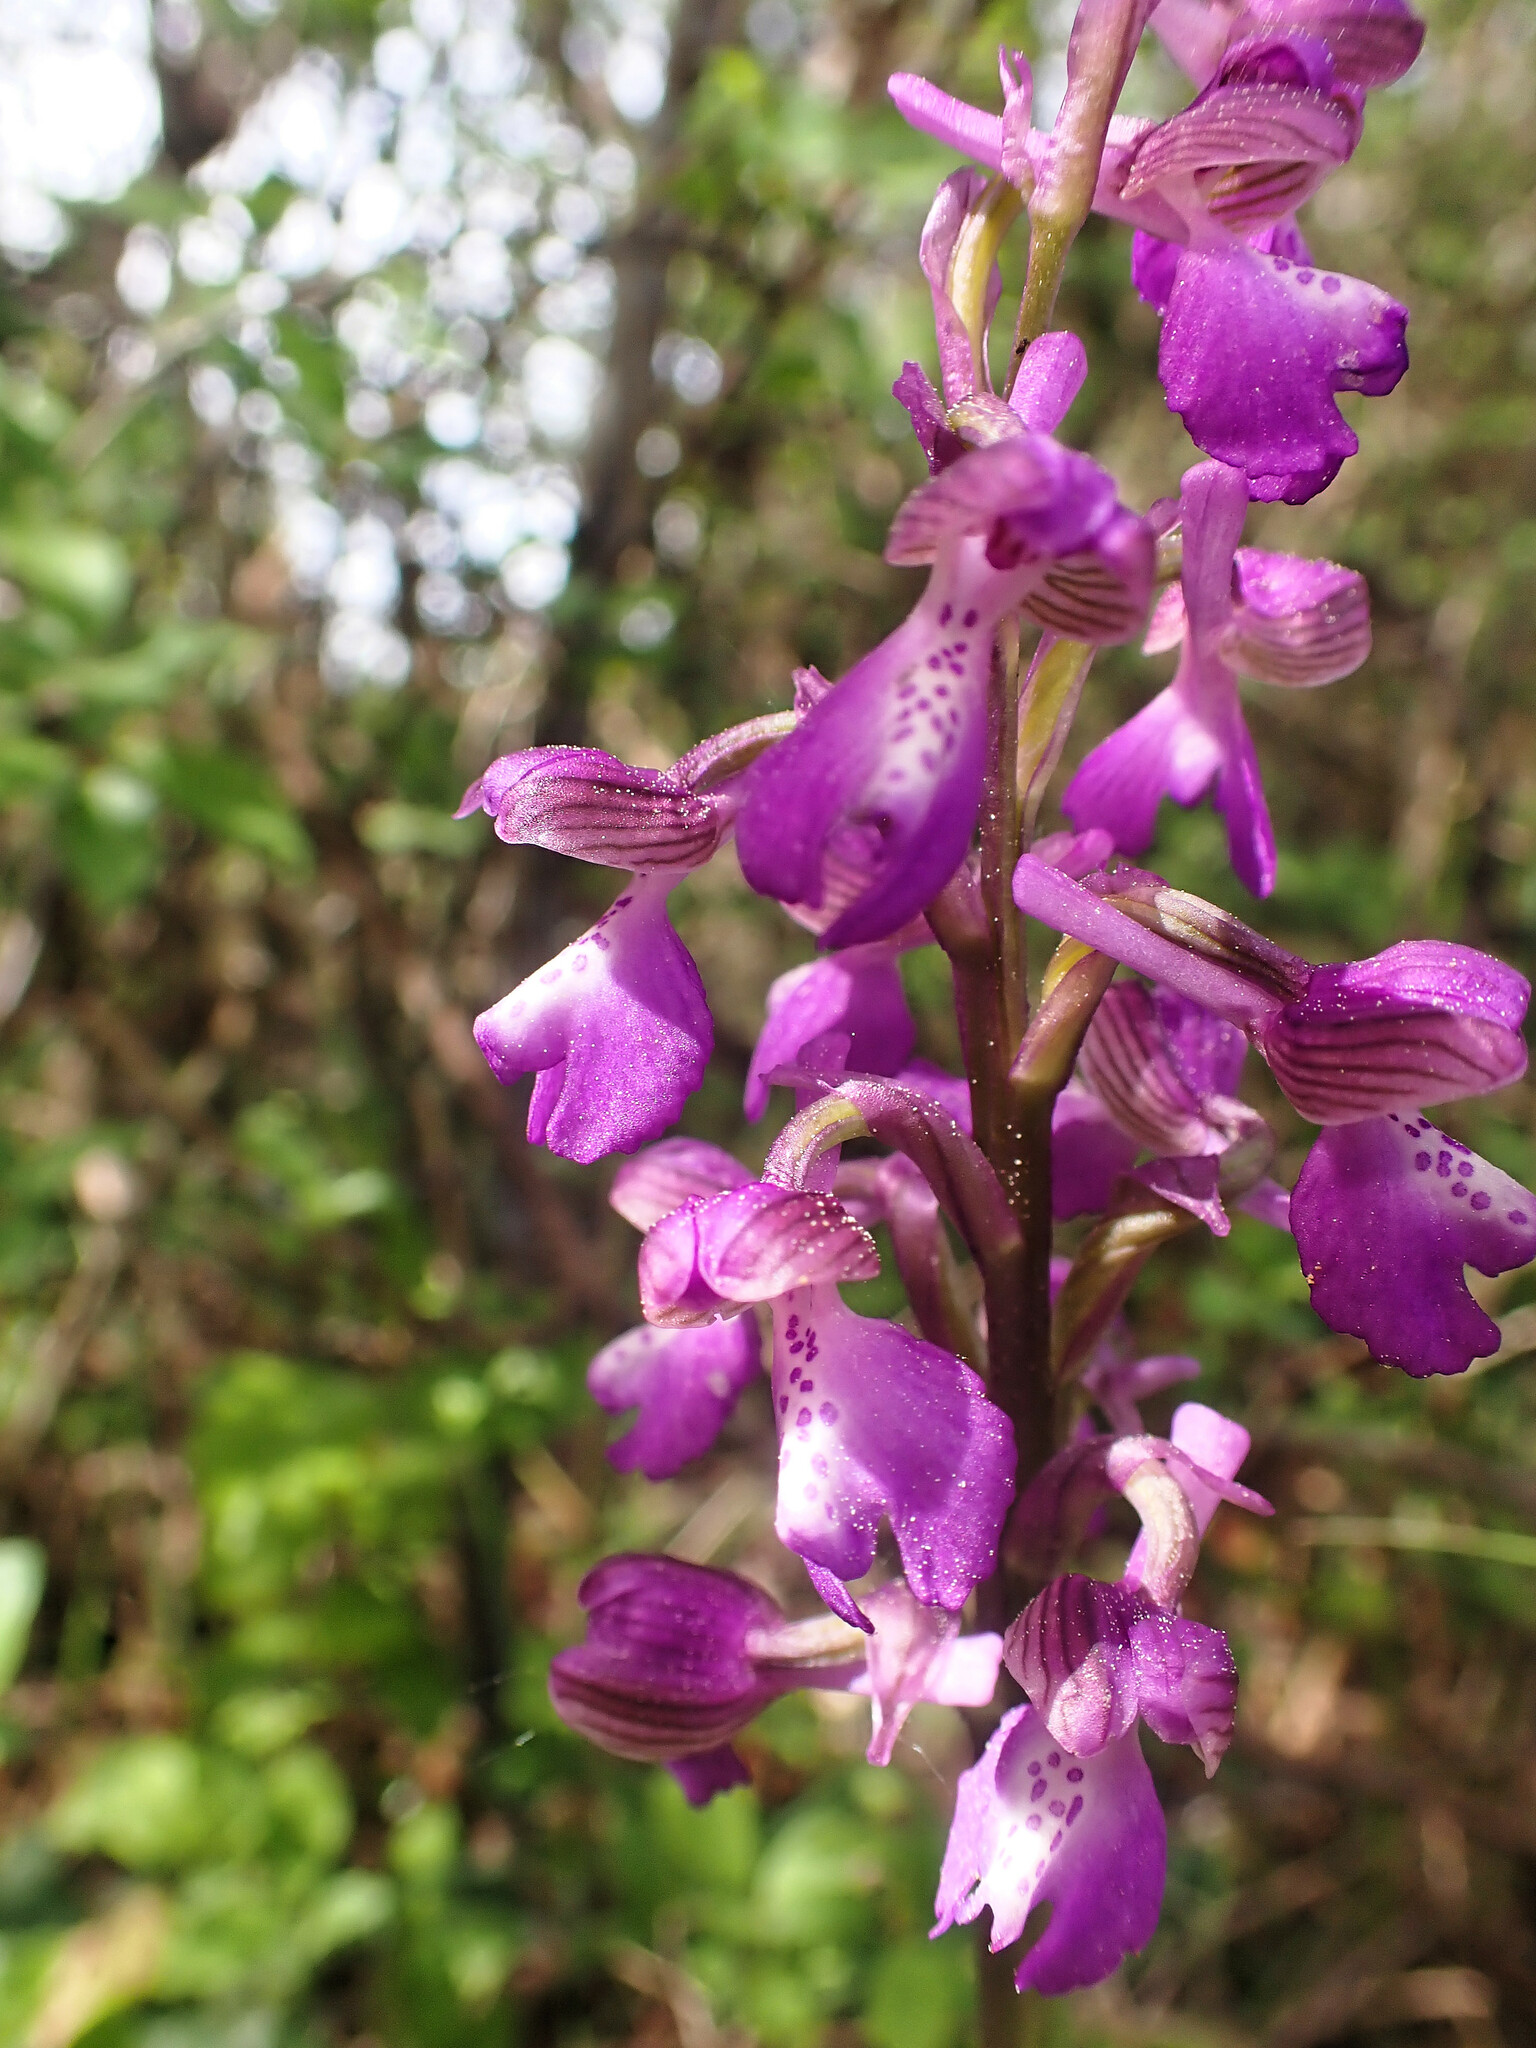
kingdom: Plantae
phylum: Tracheophyta
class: Liliopsida
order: Asparagales
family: Orchidaceae
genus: Anacamptis
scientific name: Anacamptis morio
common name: Green-winged orchid
